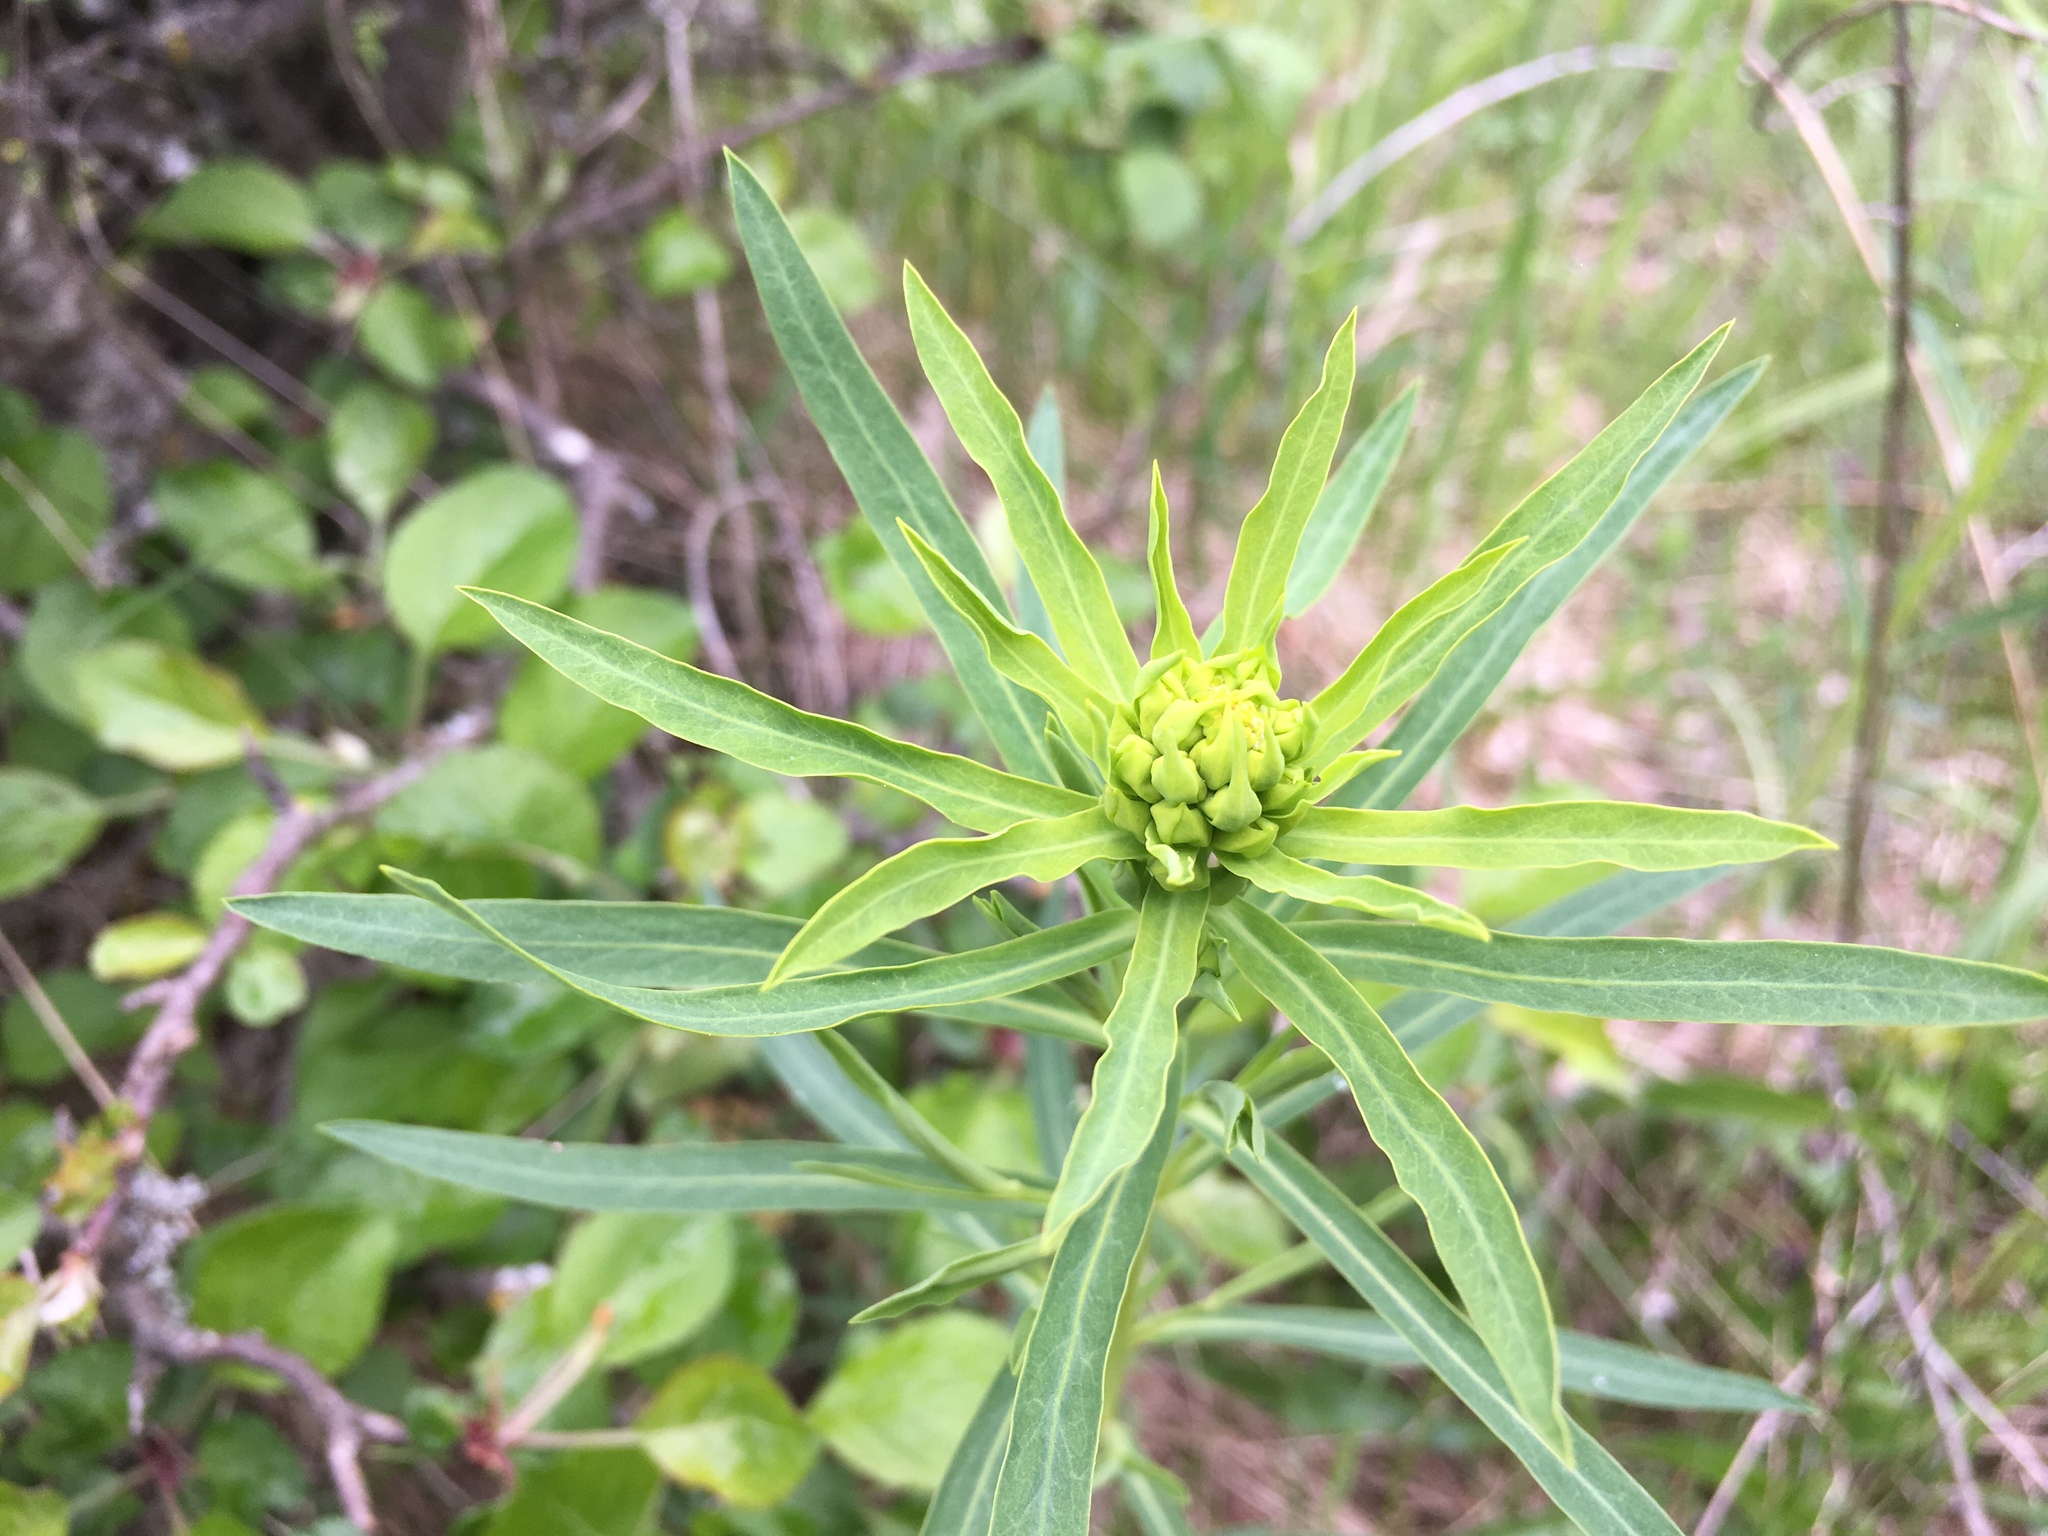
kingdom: Plantae
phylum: Tracheophyta
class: Magnoliopsida
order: Malpighiales
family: Euphorbiaceae
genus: Euphorbia
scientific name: Euphorbia virgata
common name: Leafy spurge
